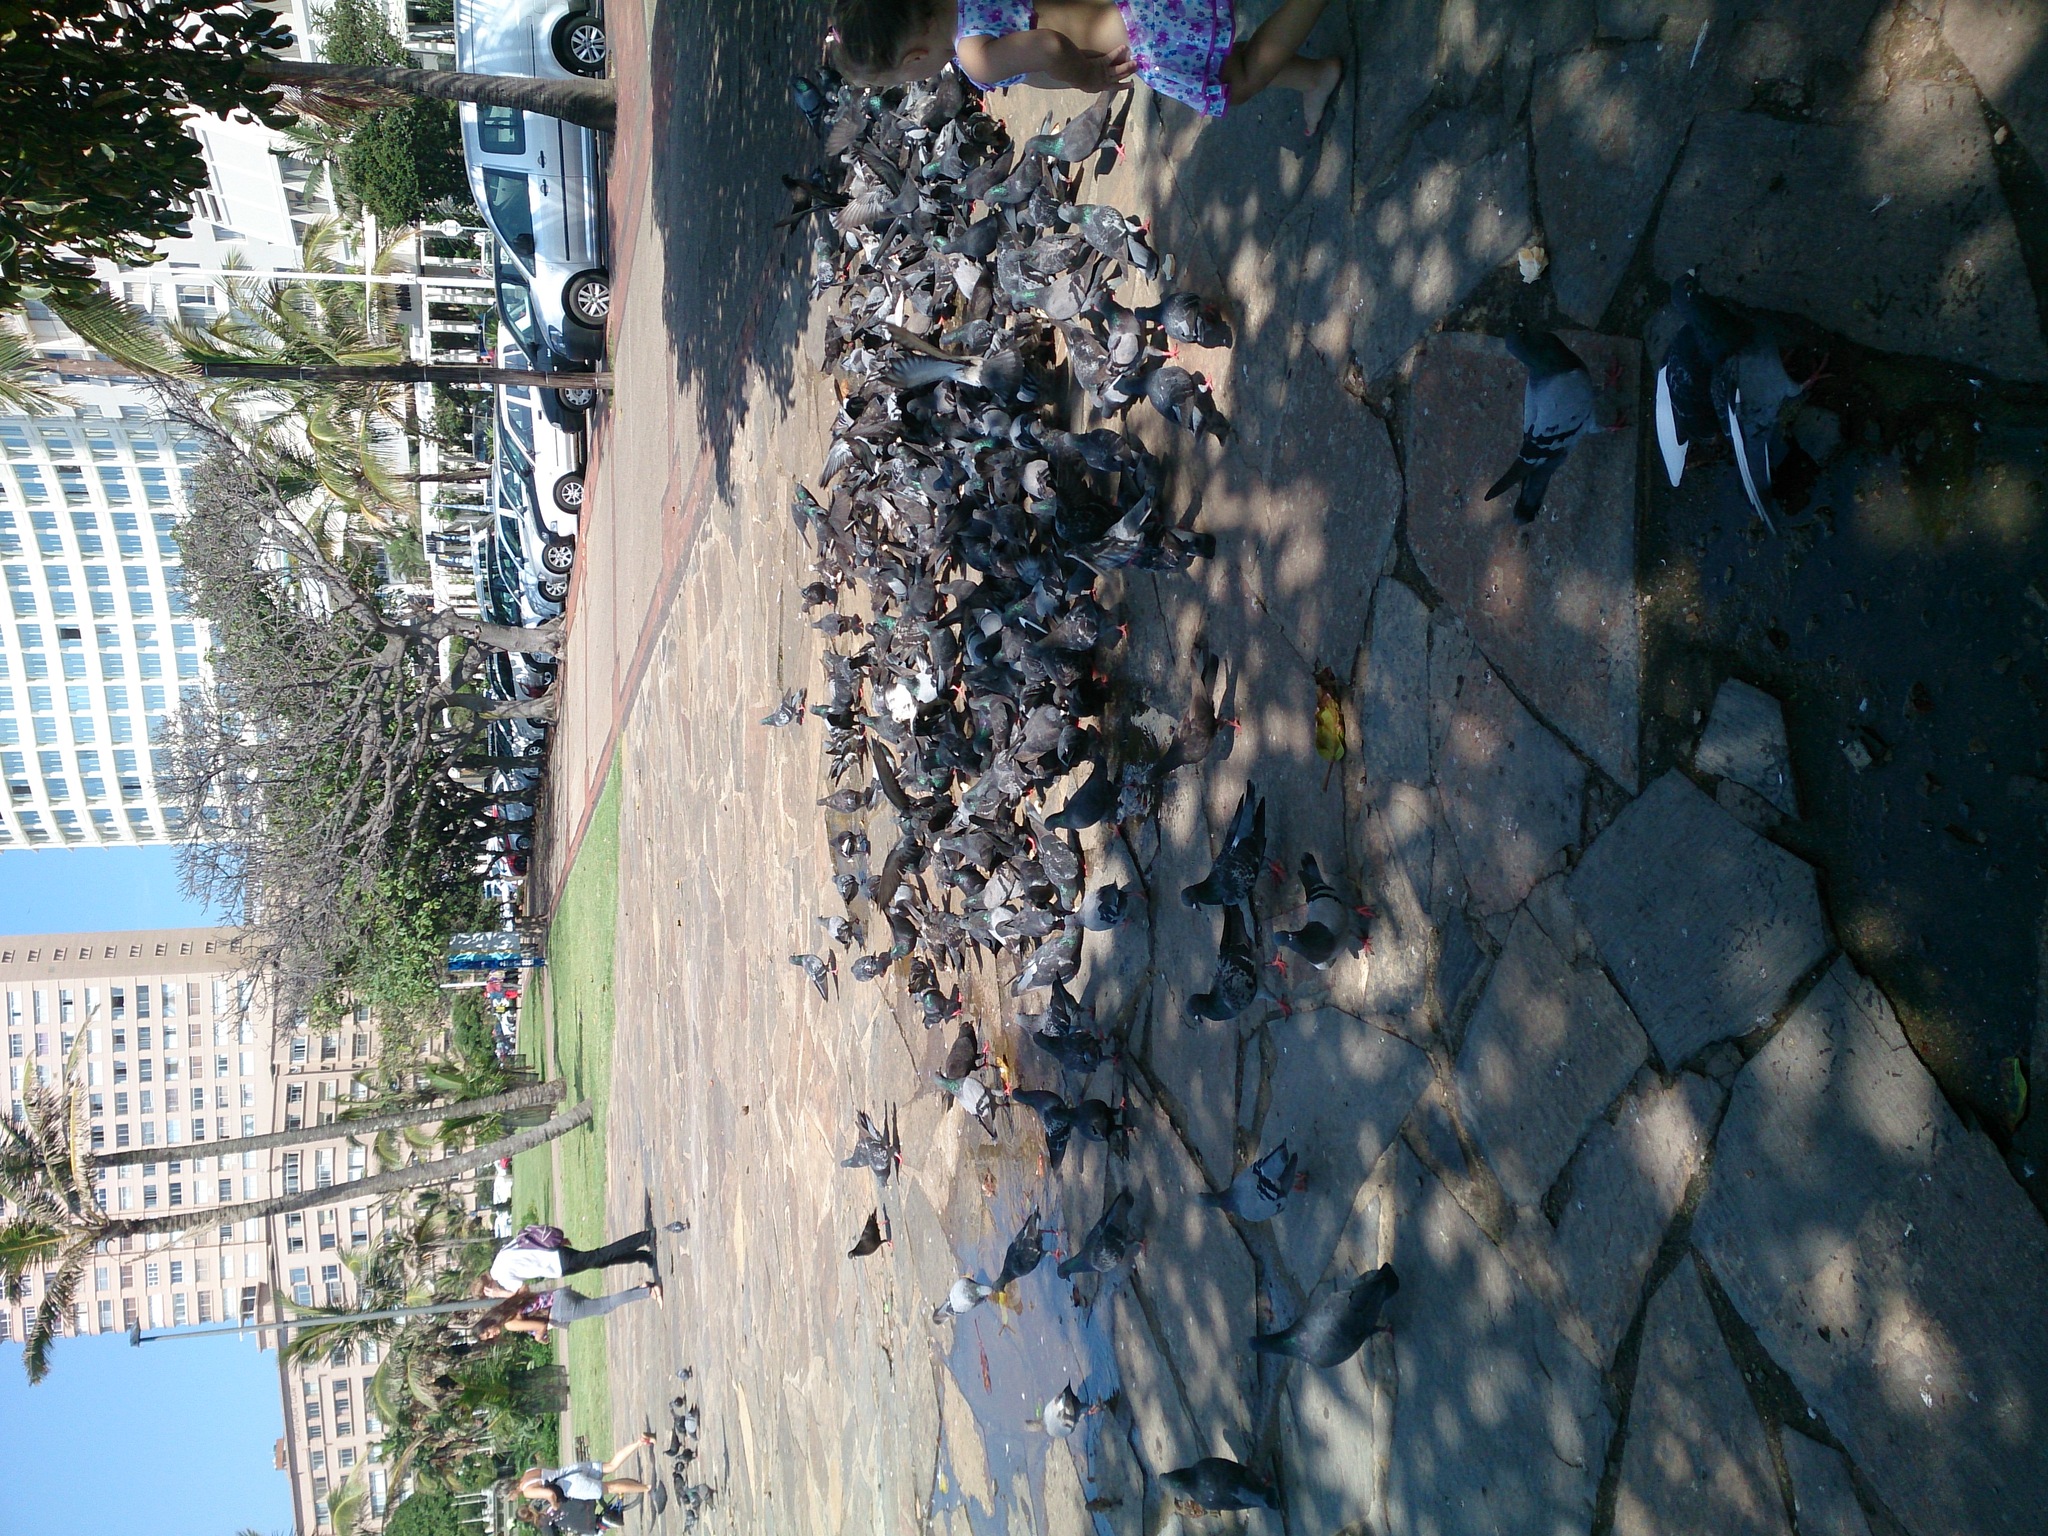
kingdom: Animalia
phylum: Chordata
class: Aves
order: Columbiformes
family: Columbidae
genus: Columba
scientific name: Columba livia
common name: Rock pigeon
